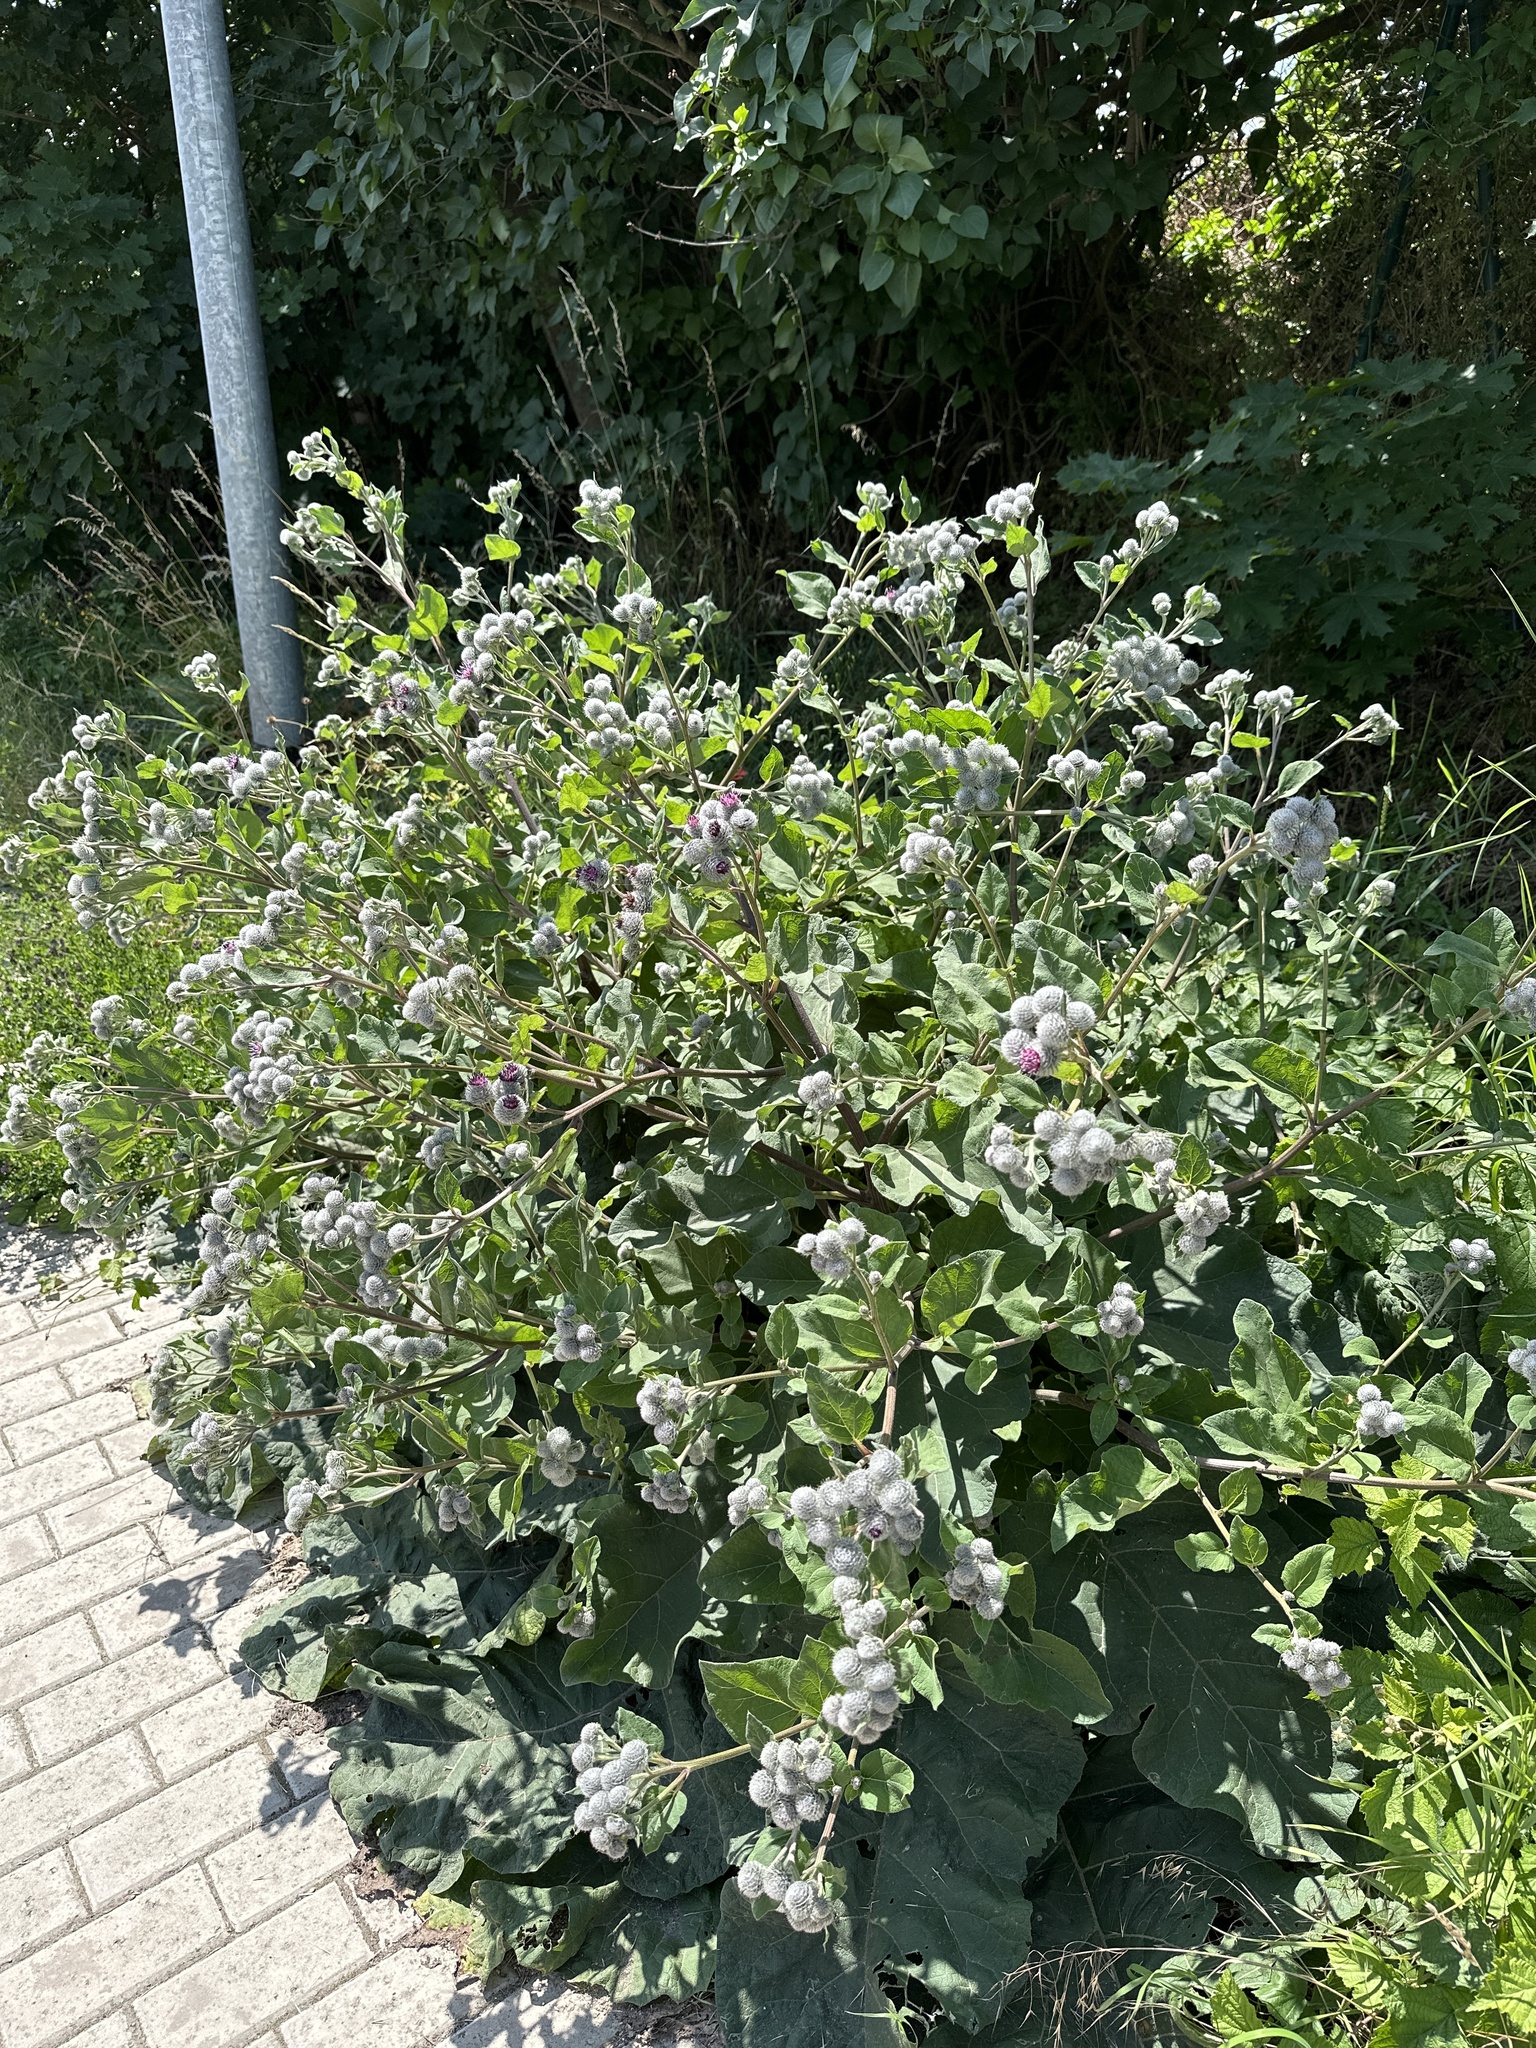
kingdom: Plantae
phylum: Tracheophyta
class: Magnoliopsida
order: Asterales
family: Asteraceae
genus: Arctium
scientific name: Arctium tomentosum
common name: Woolly burdock
